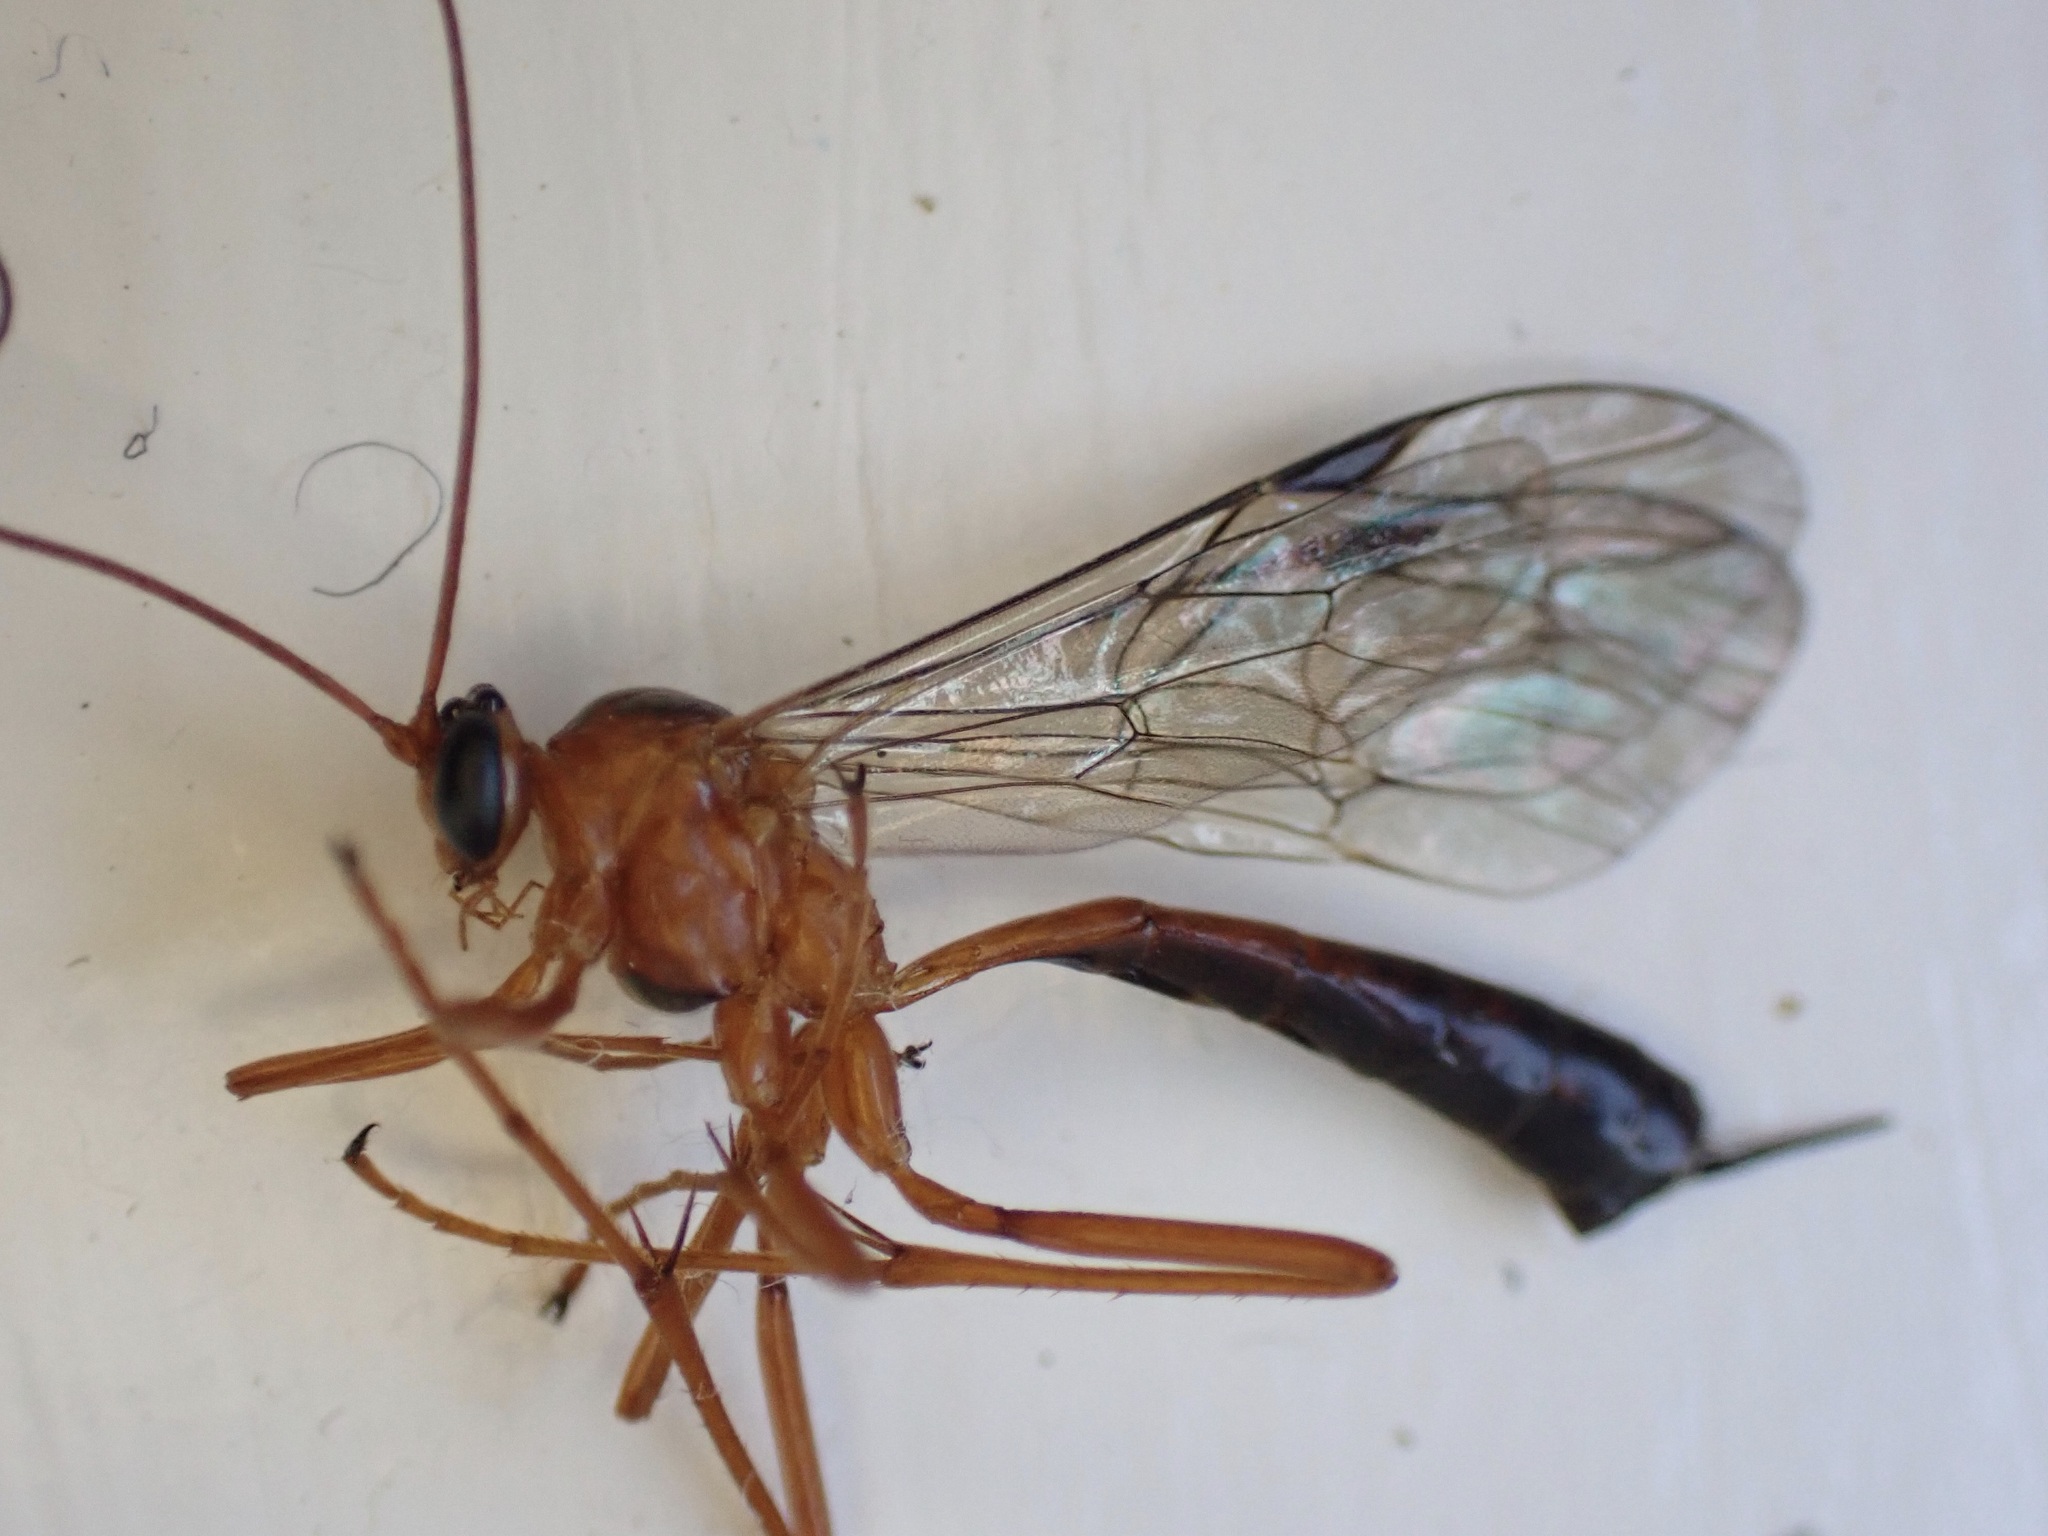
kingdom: Animalia
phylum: Arthropoda
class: Insecta
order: Hymenoptera
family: Ichneumonidae
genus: Netelia
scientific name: Netelia ephippiata
